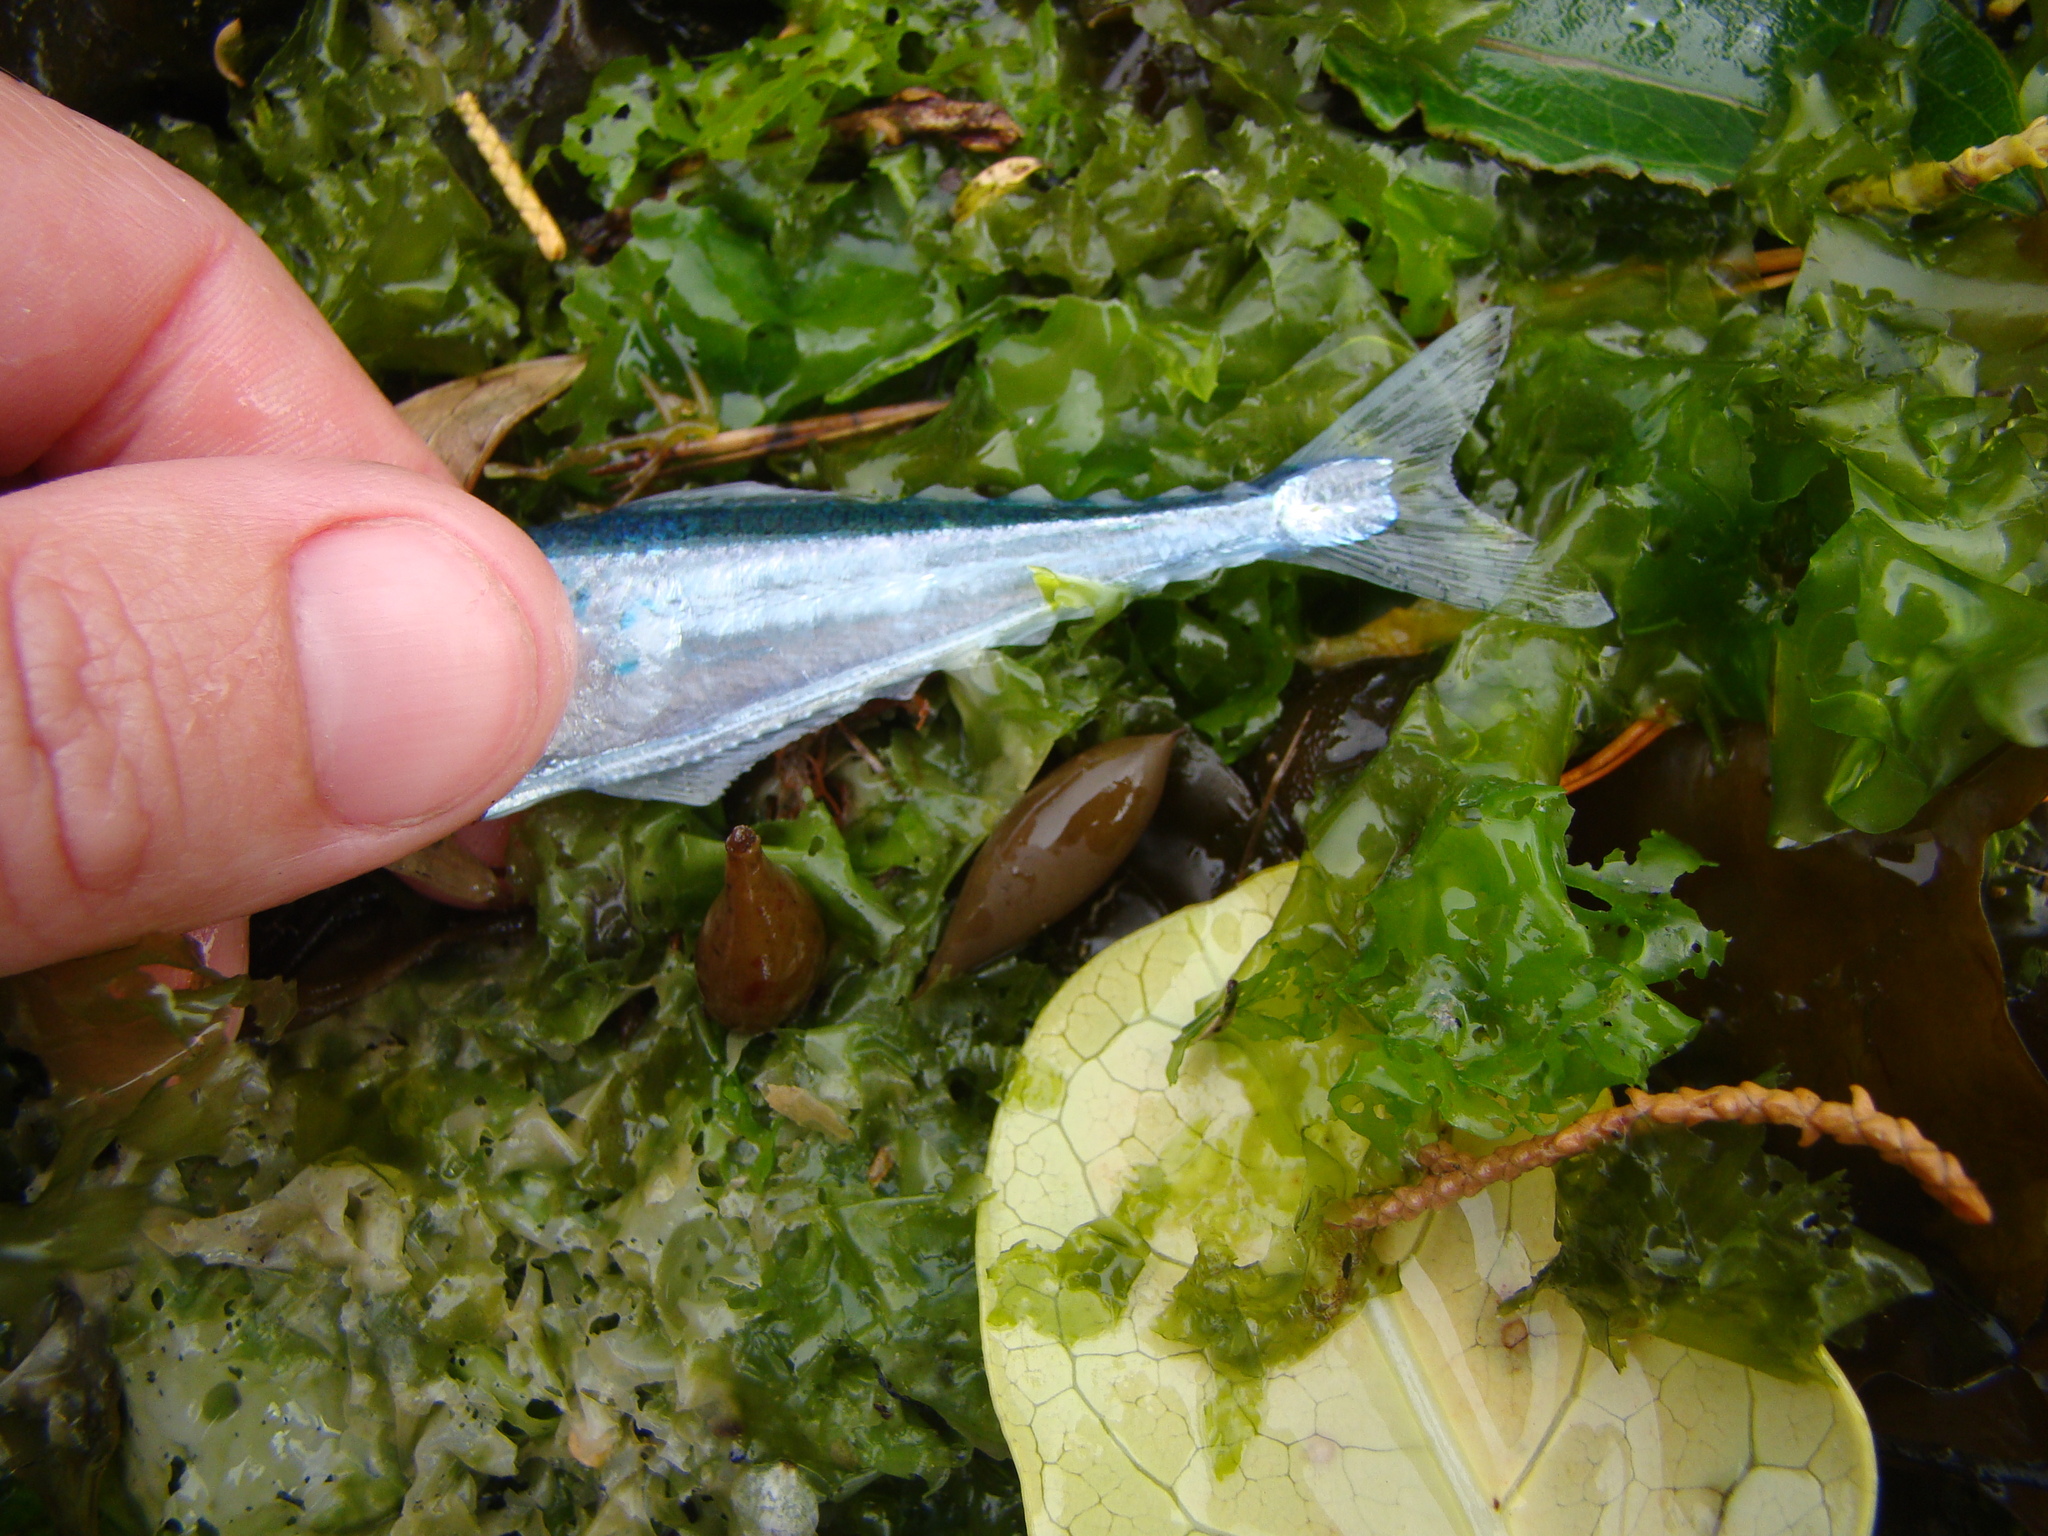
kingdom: Animalia
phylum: Chordata
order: Beloniformes
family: Hemiramphidae
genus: Hyporhamphus
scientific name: Hyporhamphus ihi
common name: Garfish
